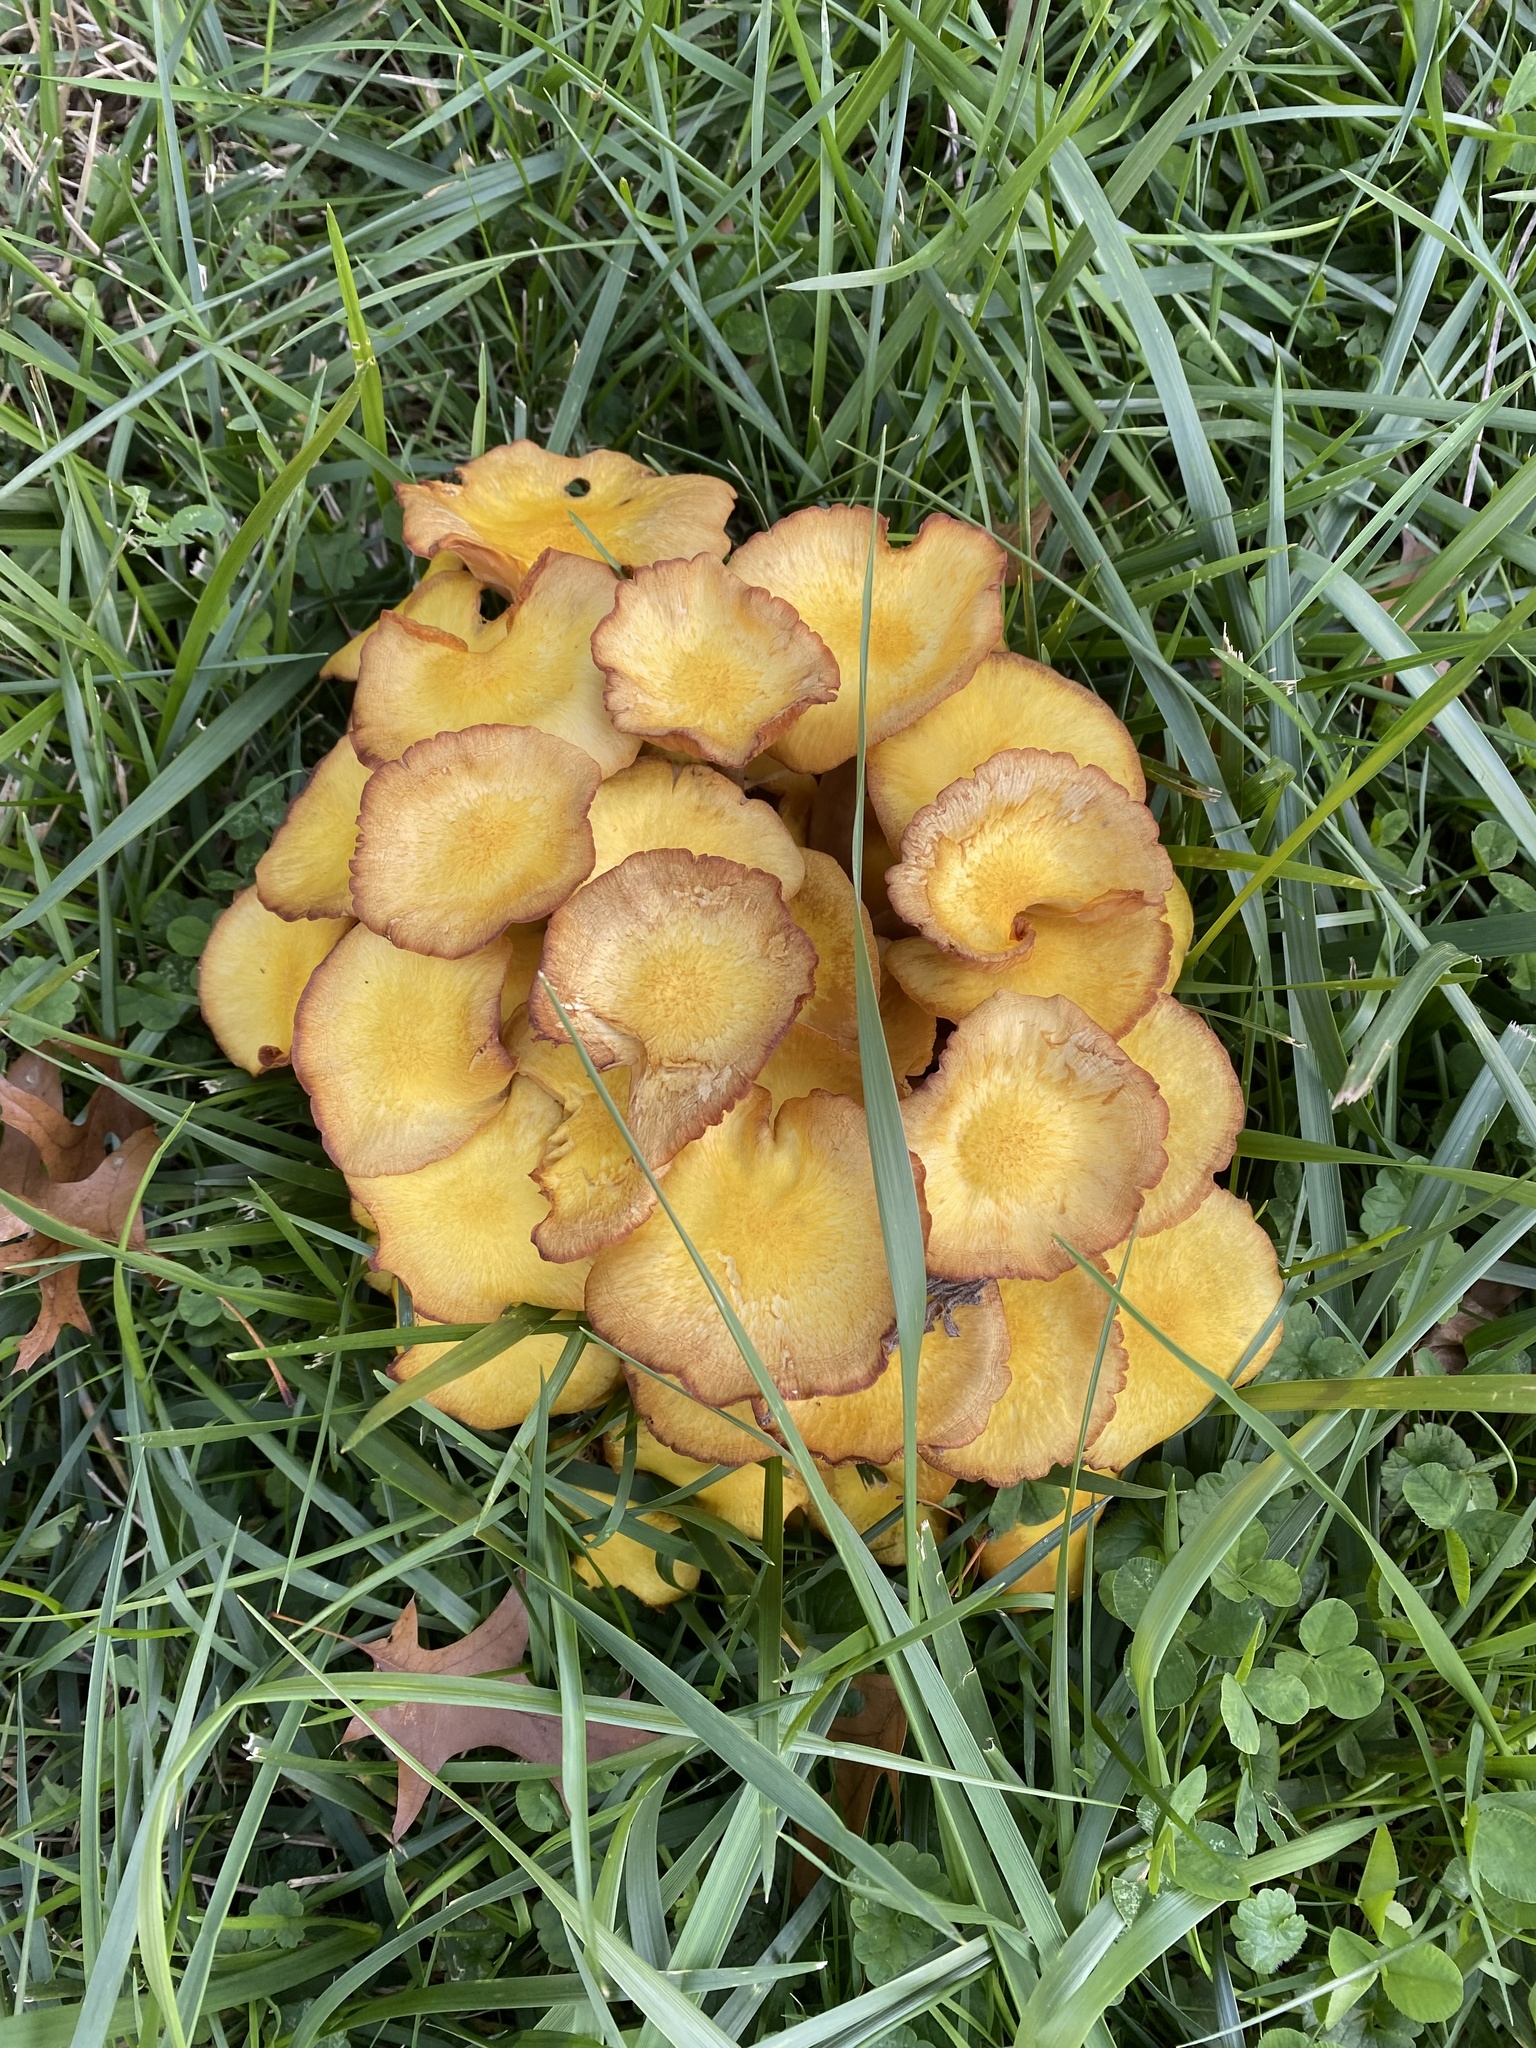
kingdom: Fungi
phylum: Basidiomycota
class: Agaricomycetes
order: Agaricales
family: Physalacriaceae
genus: Desarmillaria
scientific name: Desarmillaria caespitosa
